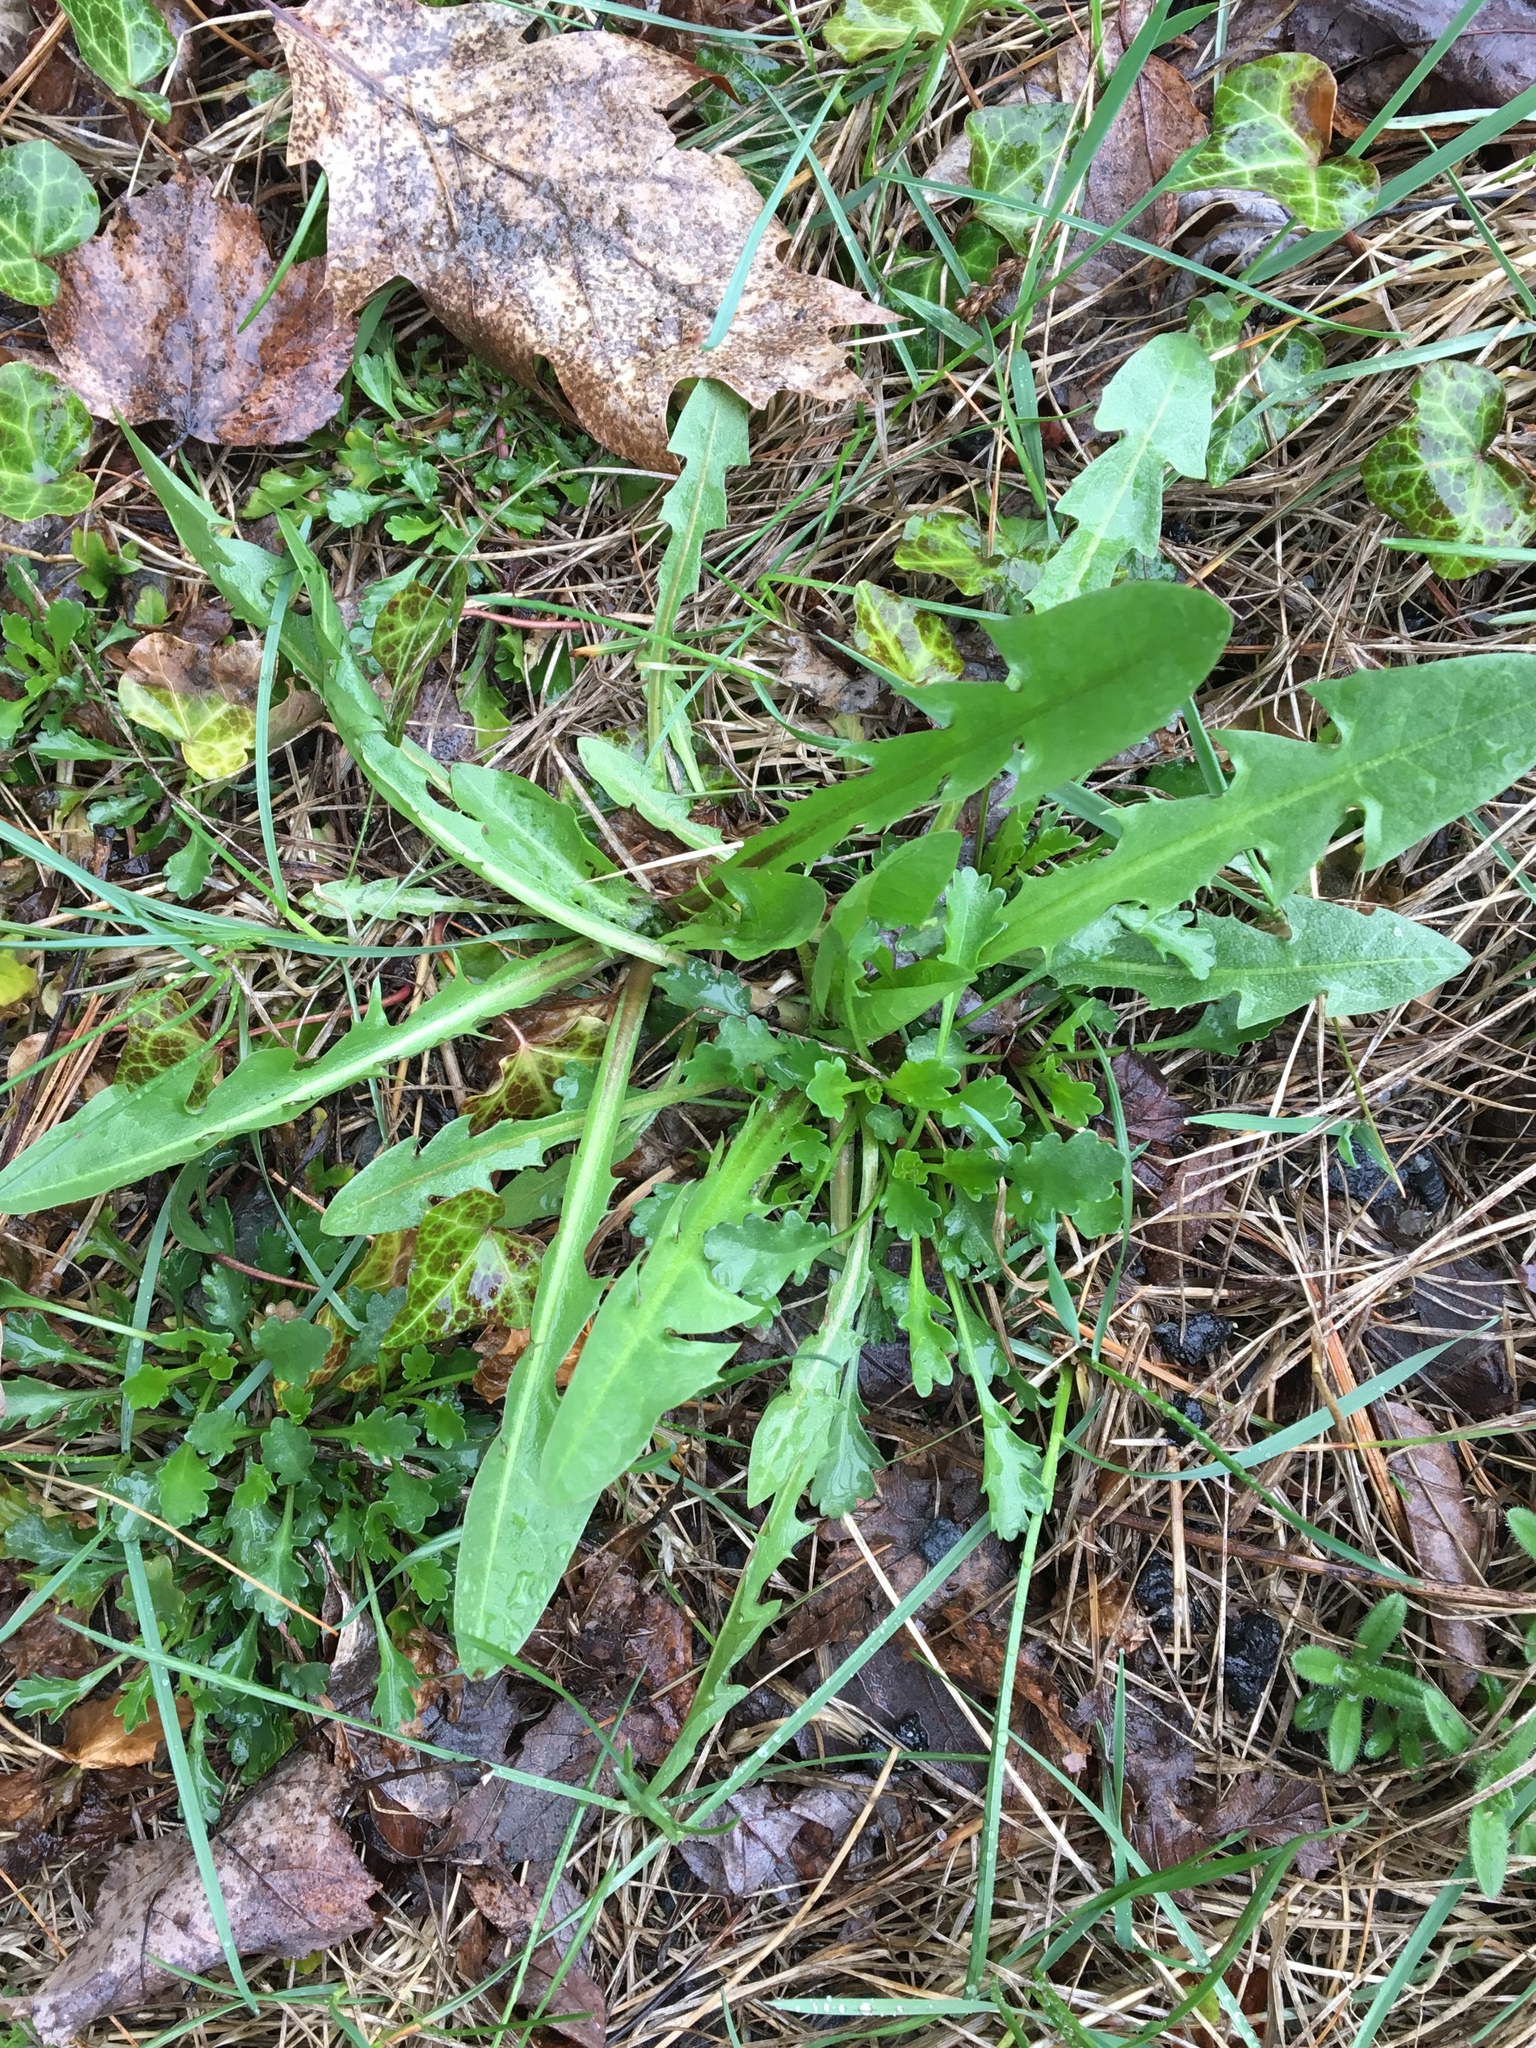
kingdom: Plantae
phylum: Tracheophyta
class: Magnoliopsida
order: Asterales
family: Asteraceae
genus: Taraxacum
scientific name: Taraxacum officinale
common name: Common dandelion
